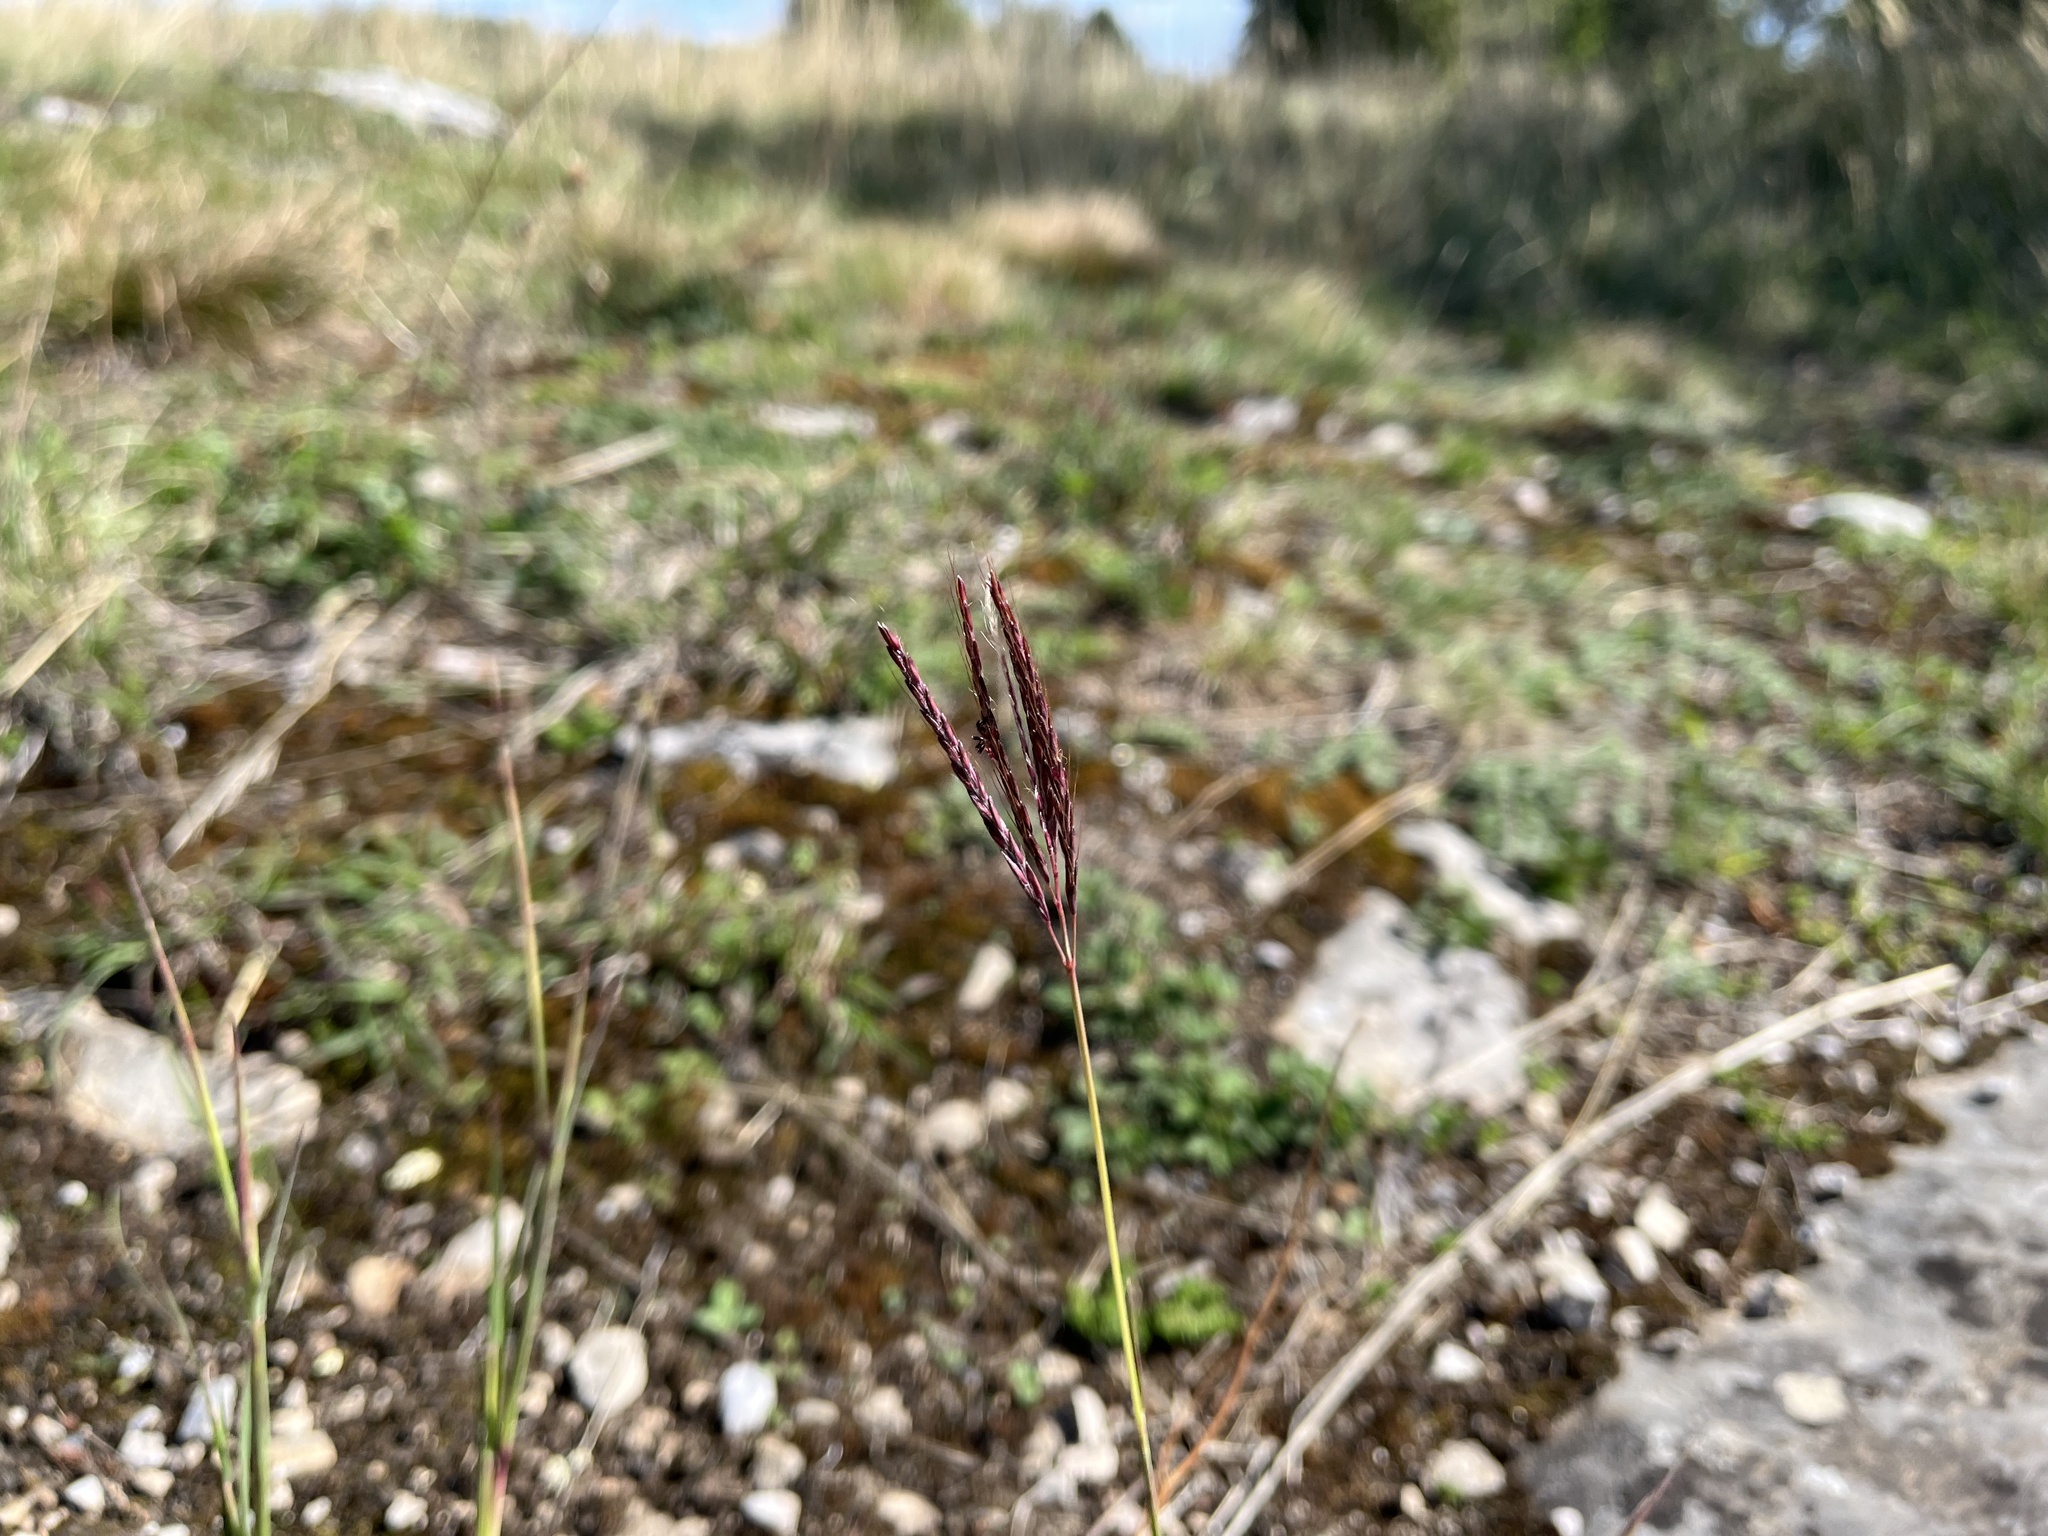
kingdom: Plantae
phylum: Tracheophyta
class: Liliopsida
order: Poales
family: Poaceae
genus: Bothriochloa
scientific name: Bothriochloa ischaemum
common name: Yellow bluestem
